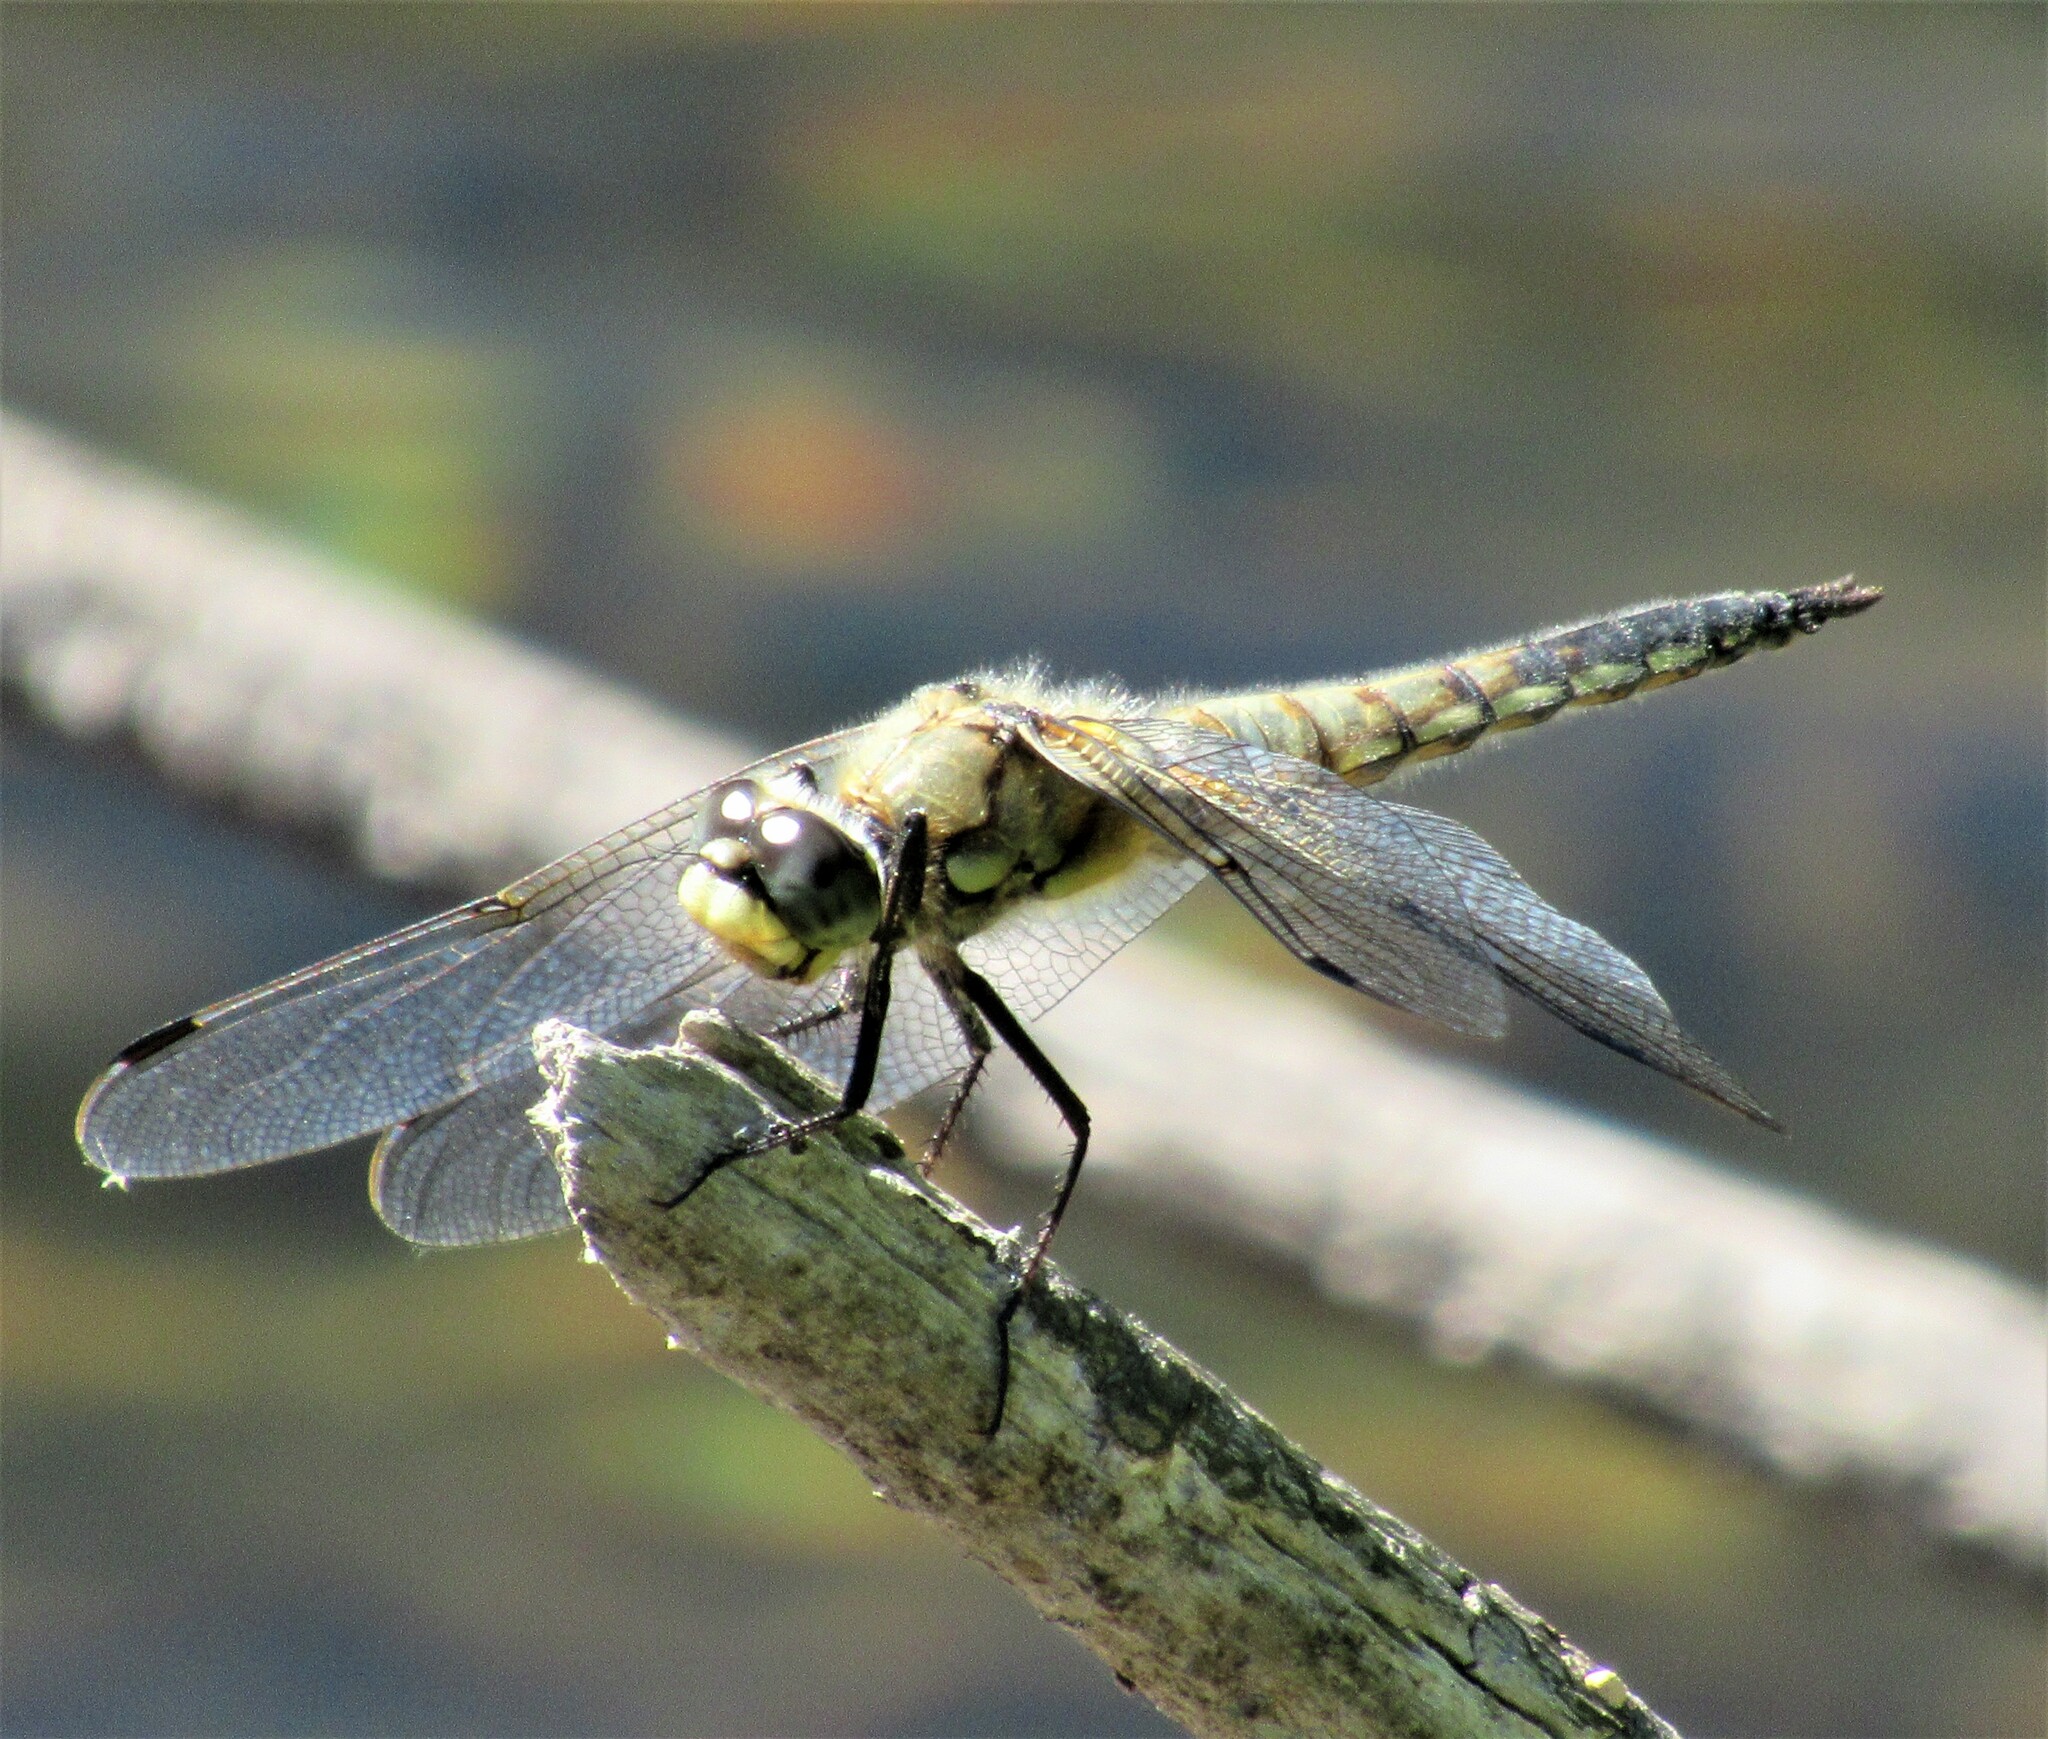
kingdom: Animalia
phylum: Arthropoda
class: Insecta
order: Odonata
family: Libellulidae
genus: Libellula
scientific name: Libellula quadrimaculata
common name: Four-spotted chaser
